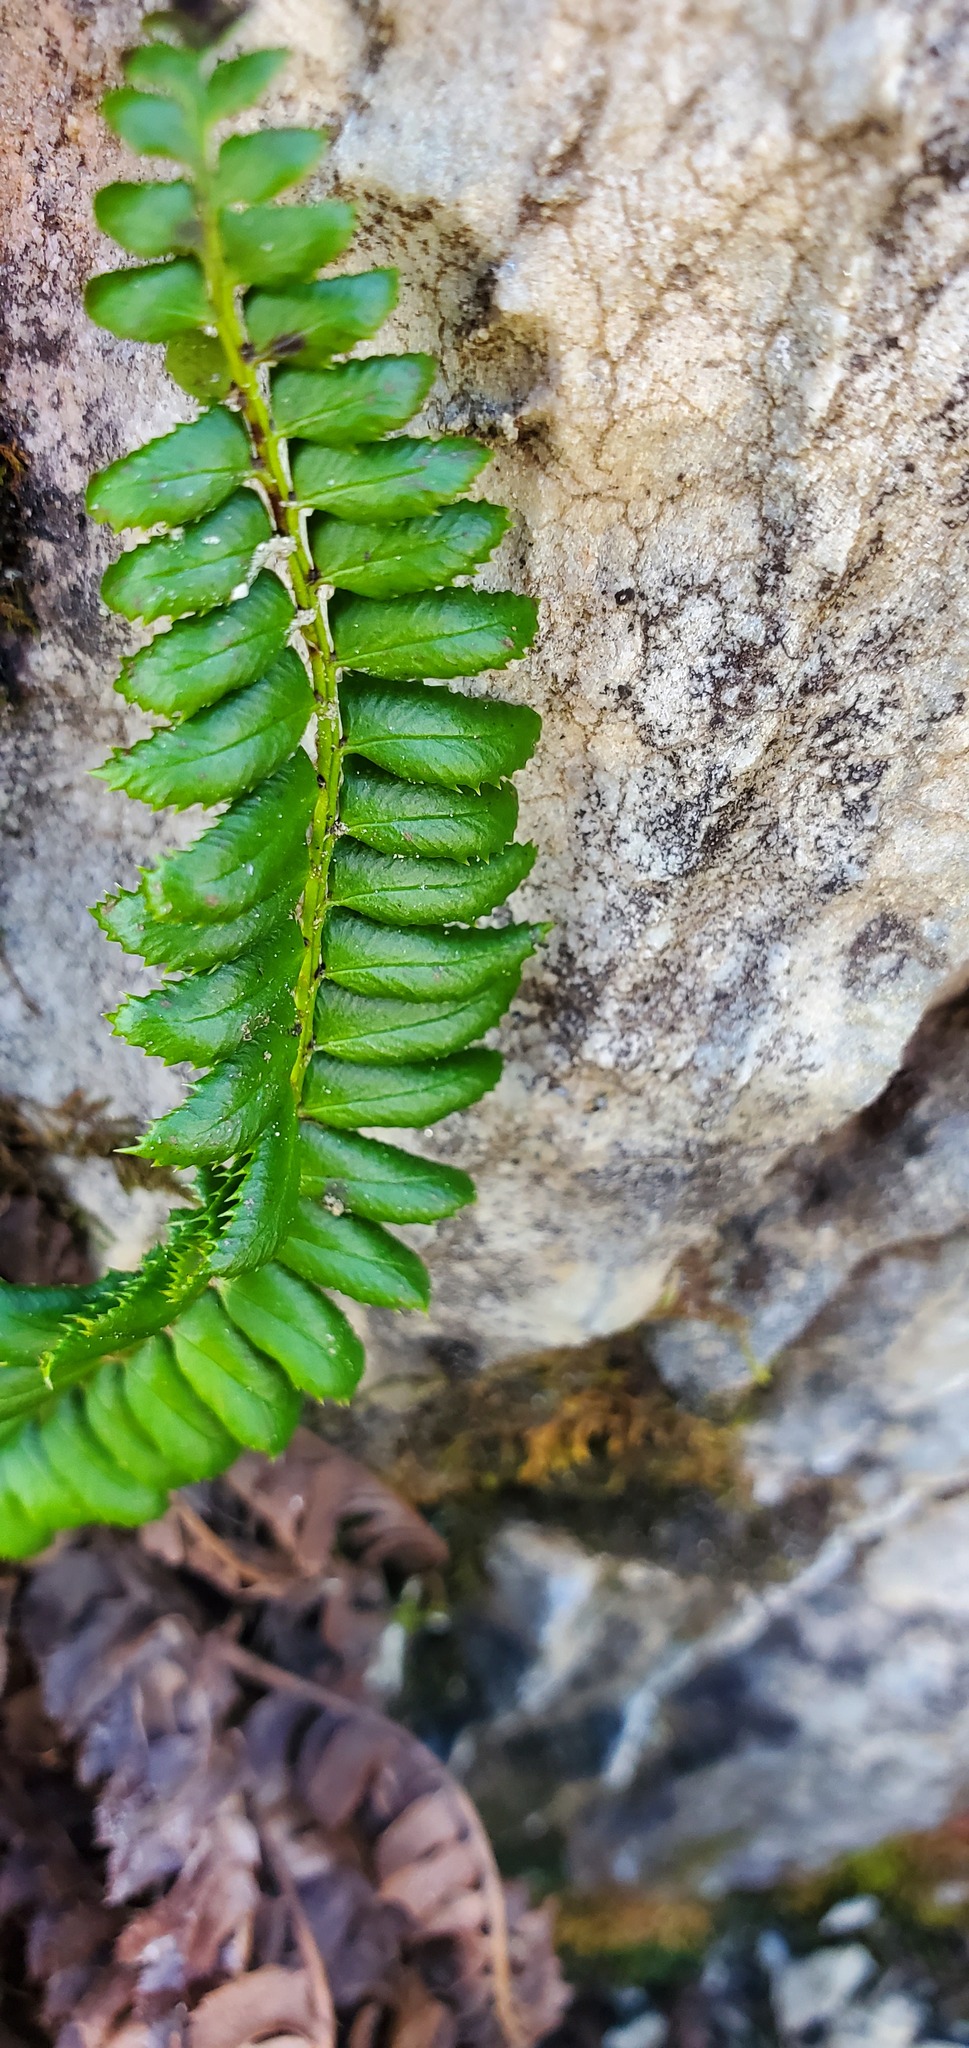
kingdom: Plantae
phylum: Tracheophyta
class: Polypodiopsida
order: Polypodiales
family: Dryopteridaceae
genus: Polystichum
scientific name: Polystichum lonchitis
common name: Holly fern
